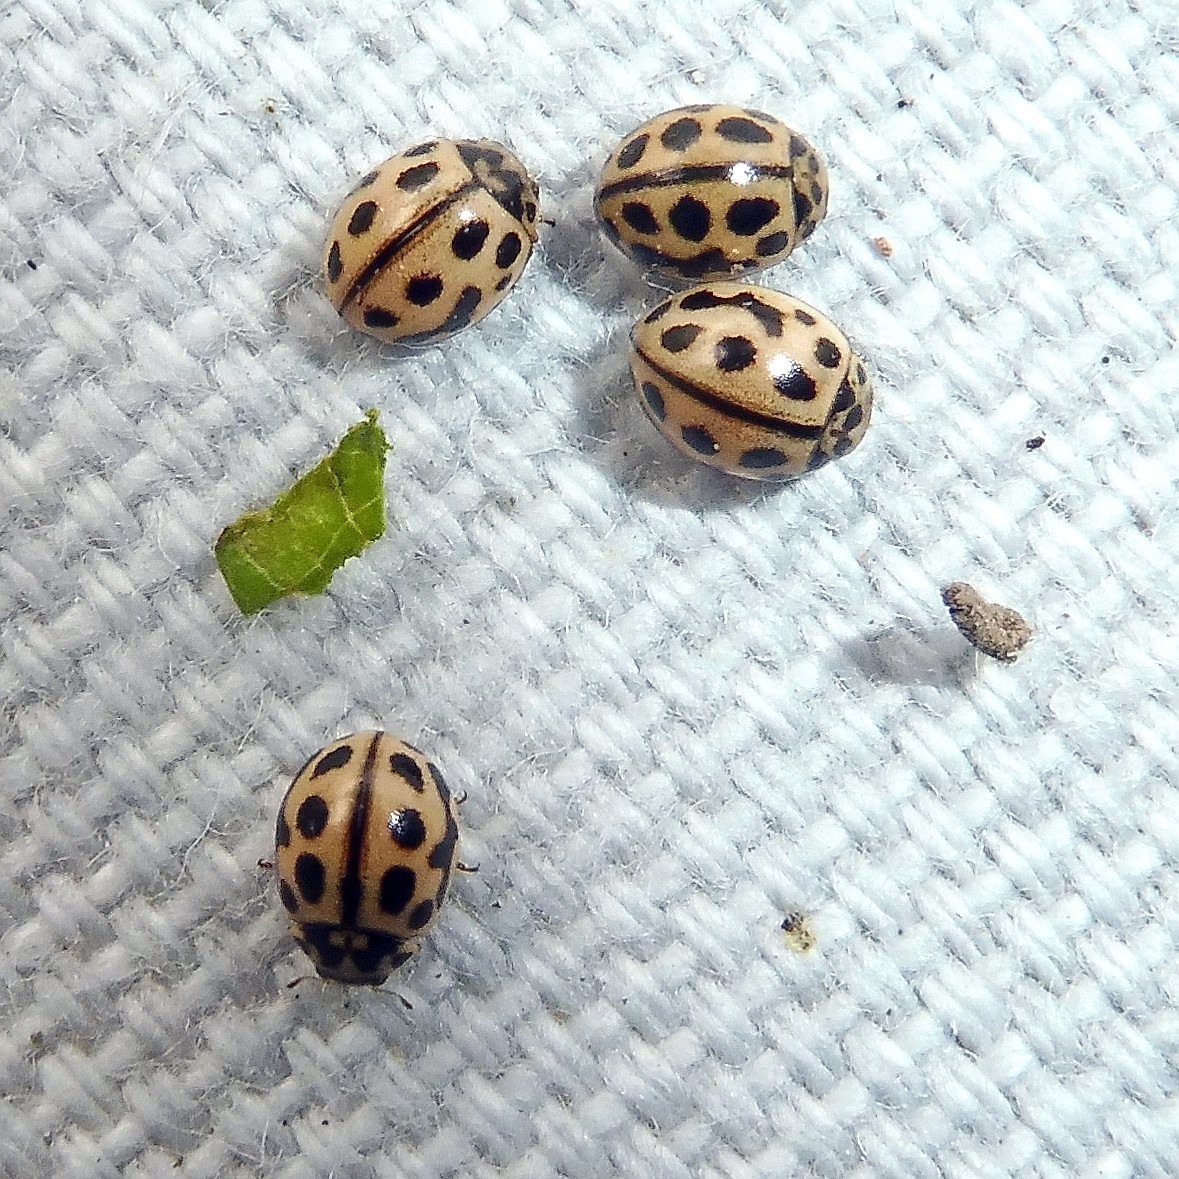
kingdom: Animalia
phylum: Arthropoda
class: Insecta
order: Coleoptera
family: Coccinellidae
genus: Tytthaspis
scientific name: Tytthaspis sedecimpunctata
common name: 16-spot ladybird
